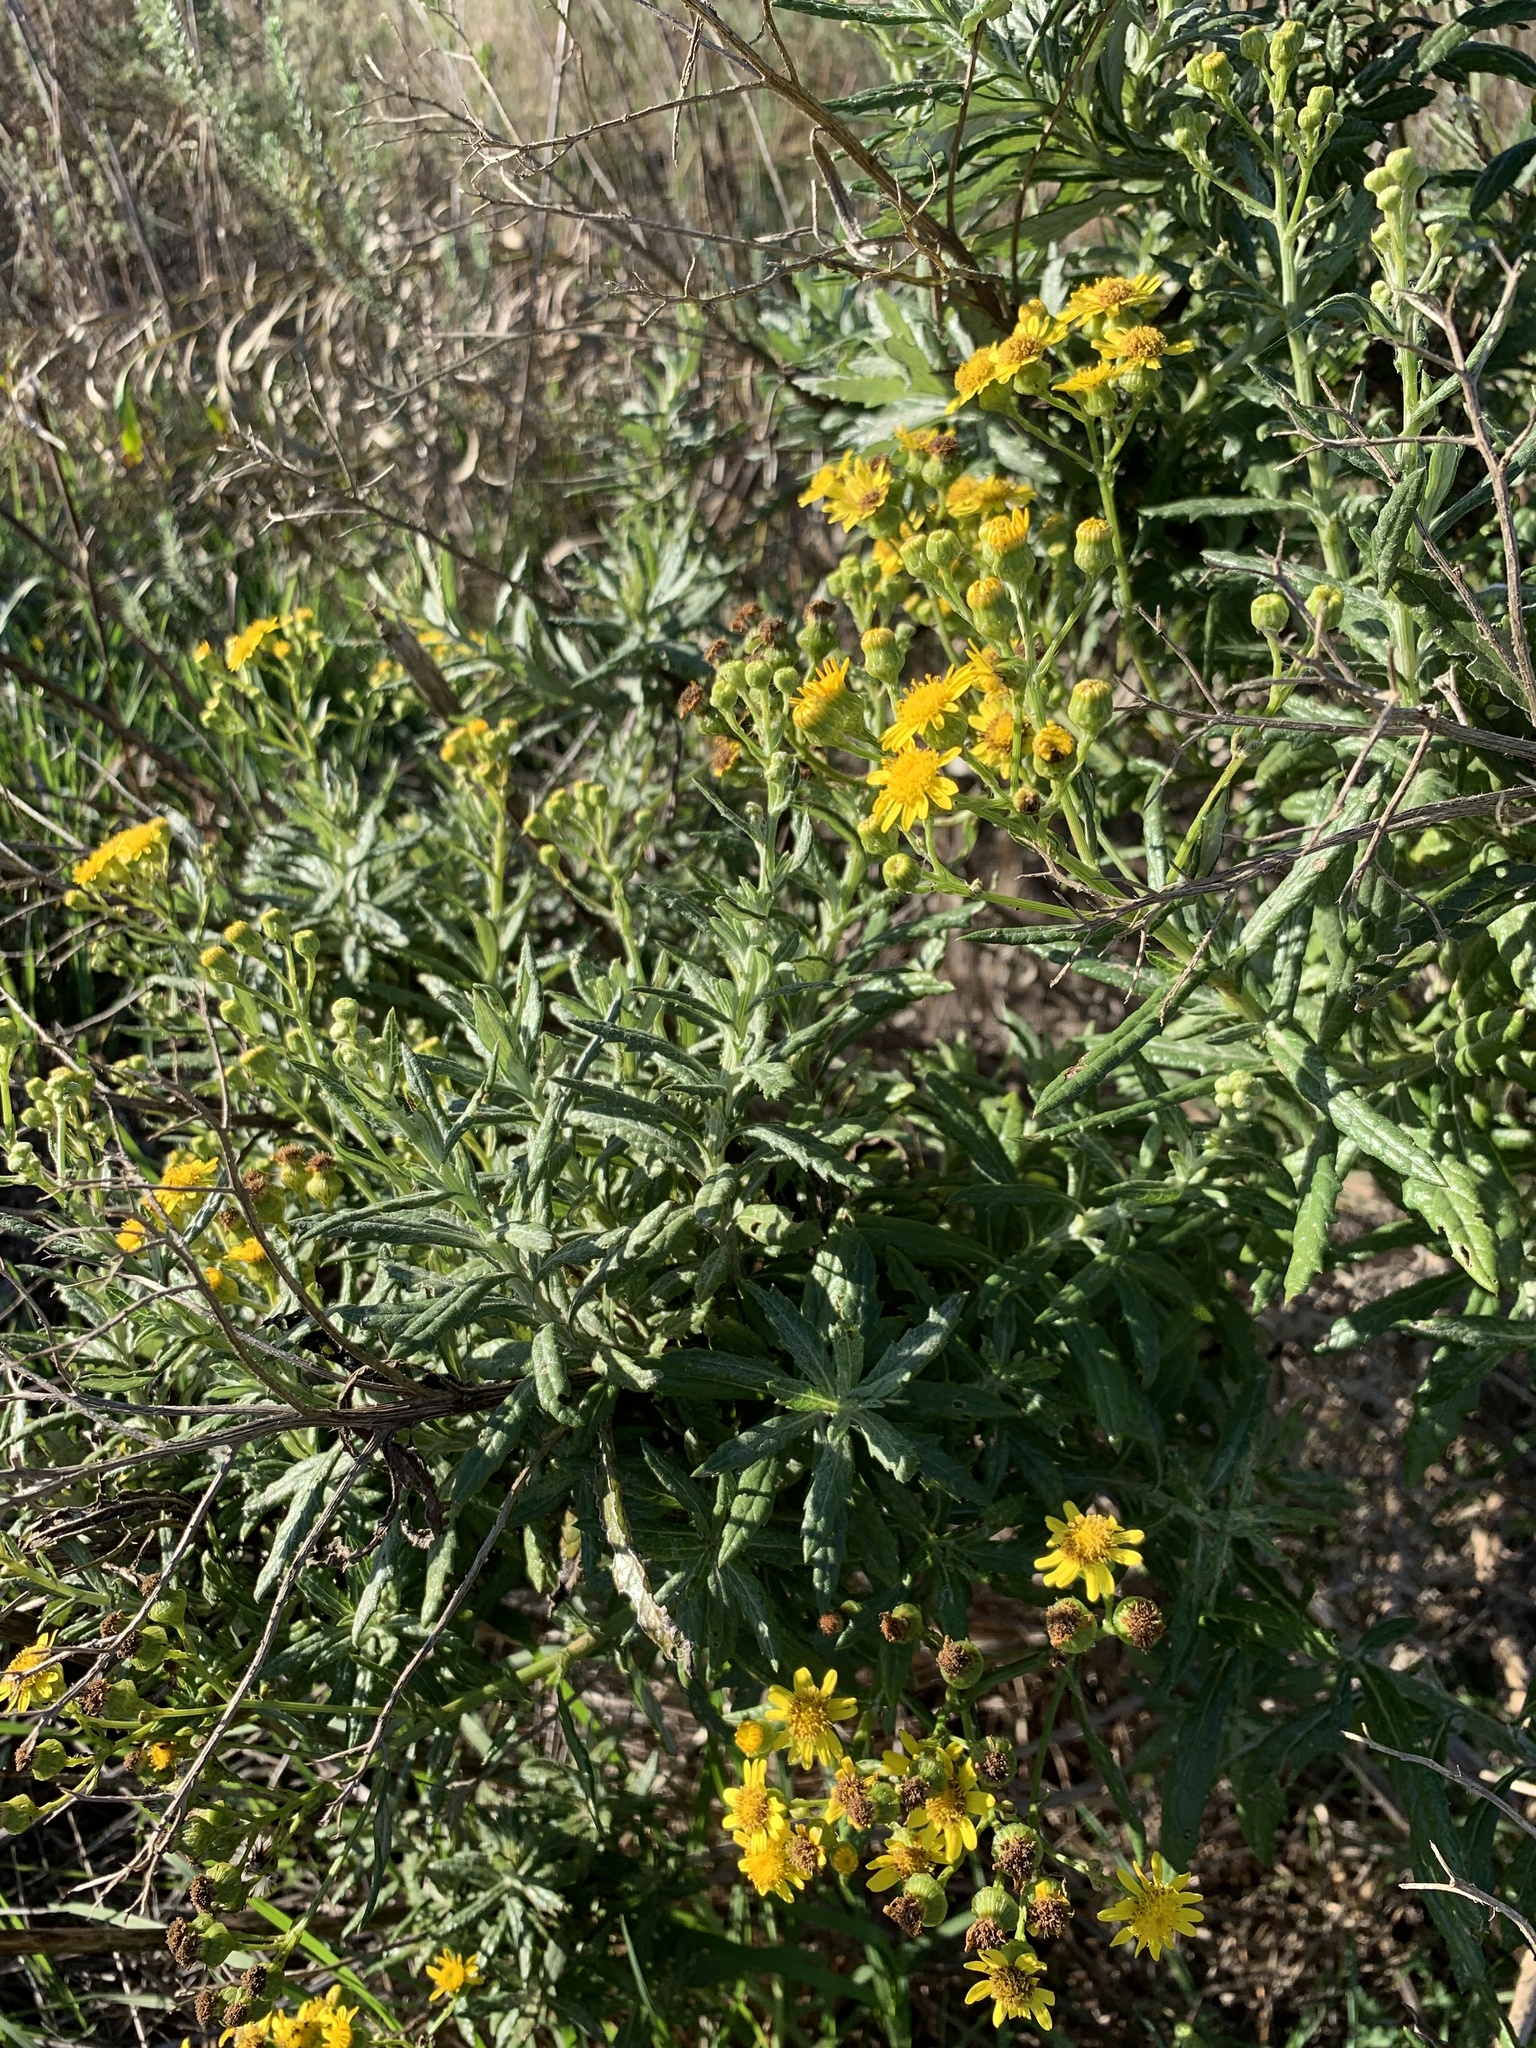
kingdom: Plantae
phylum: Tracheophyta
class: Magnoliopsida
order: Asterales
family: Asteraceae
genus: Senecio
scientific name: Senecio pterophorus
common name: Shoddy ragwort
